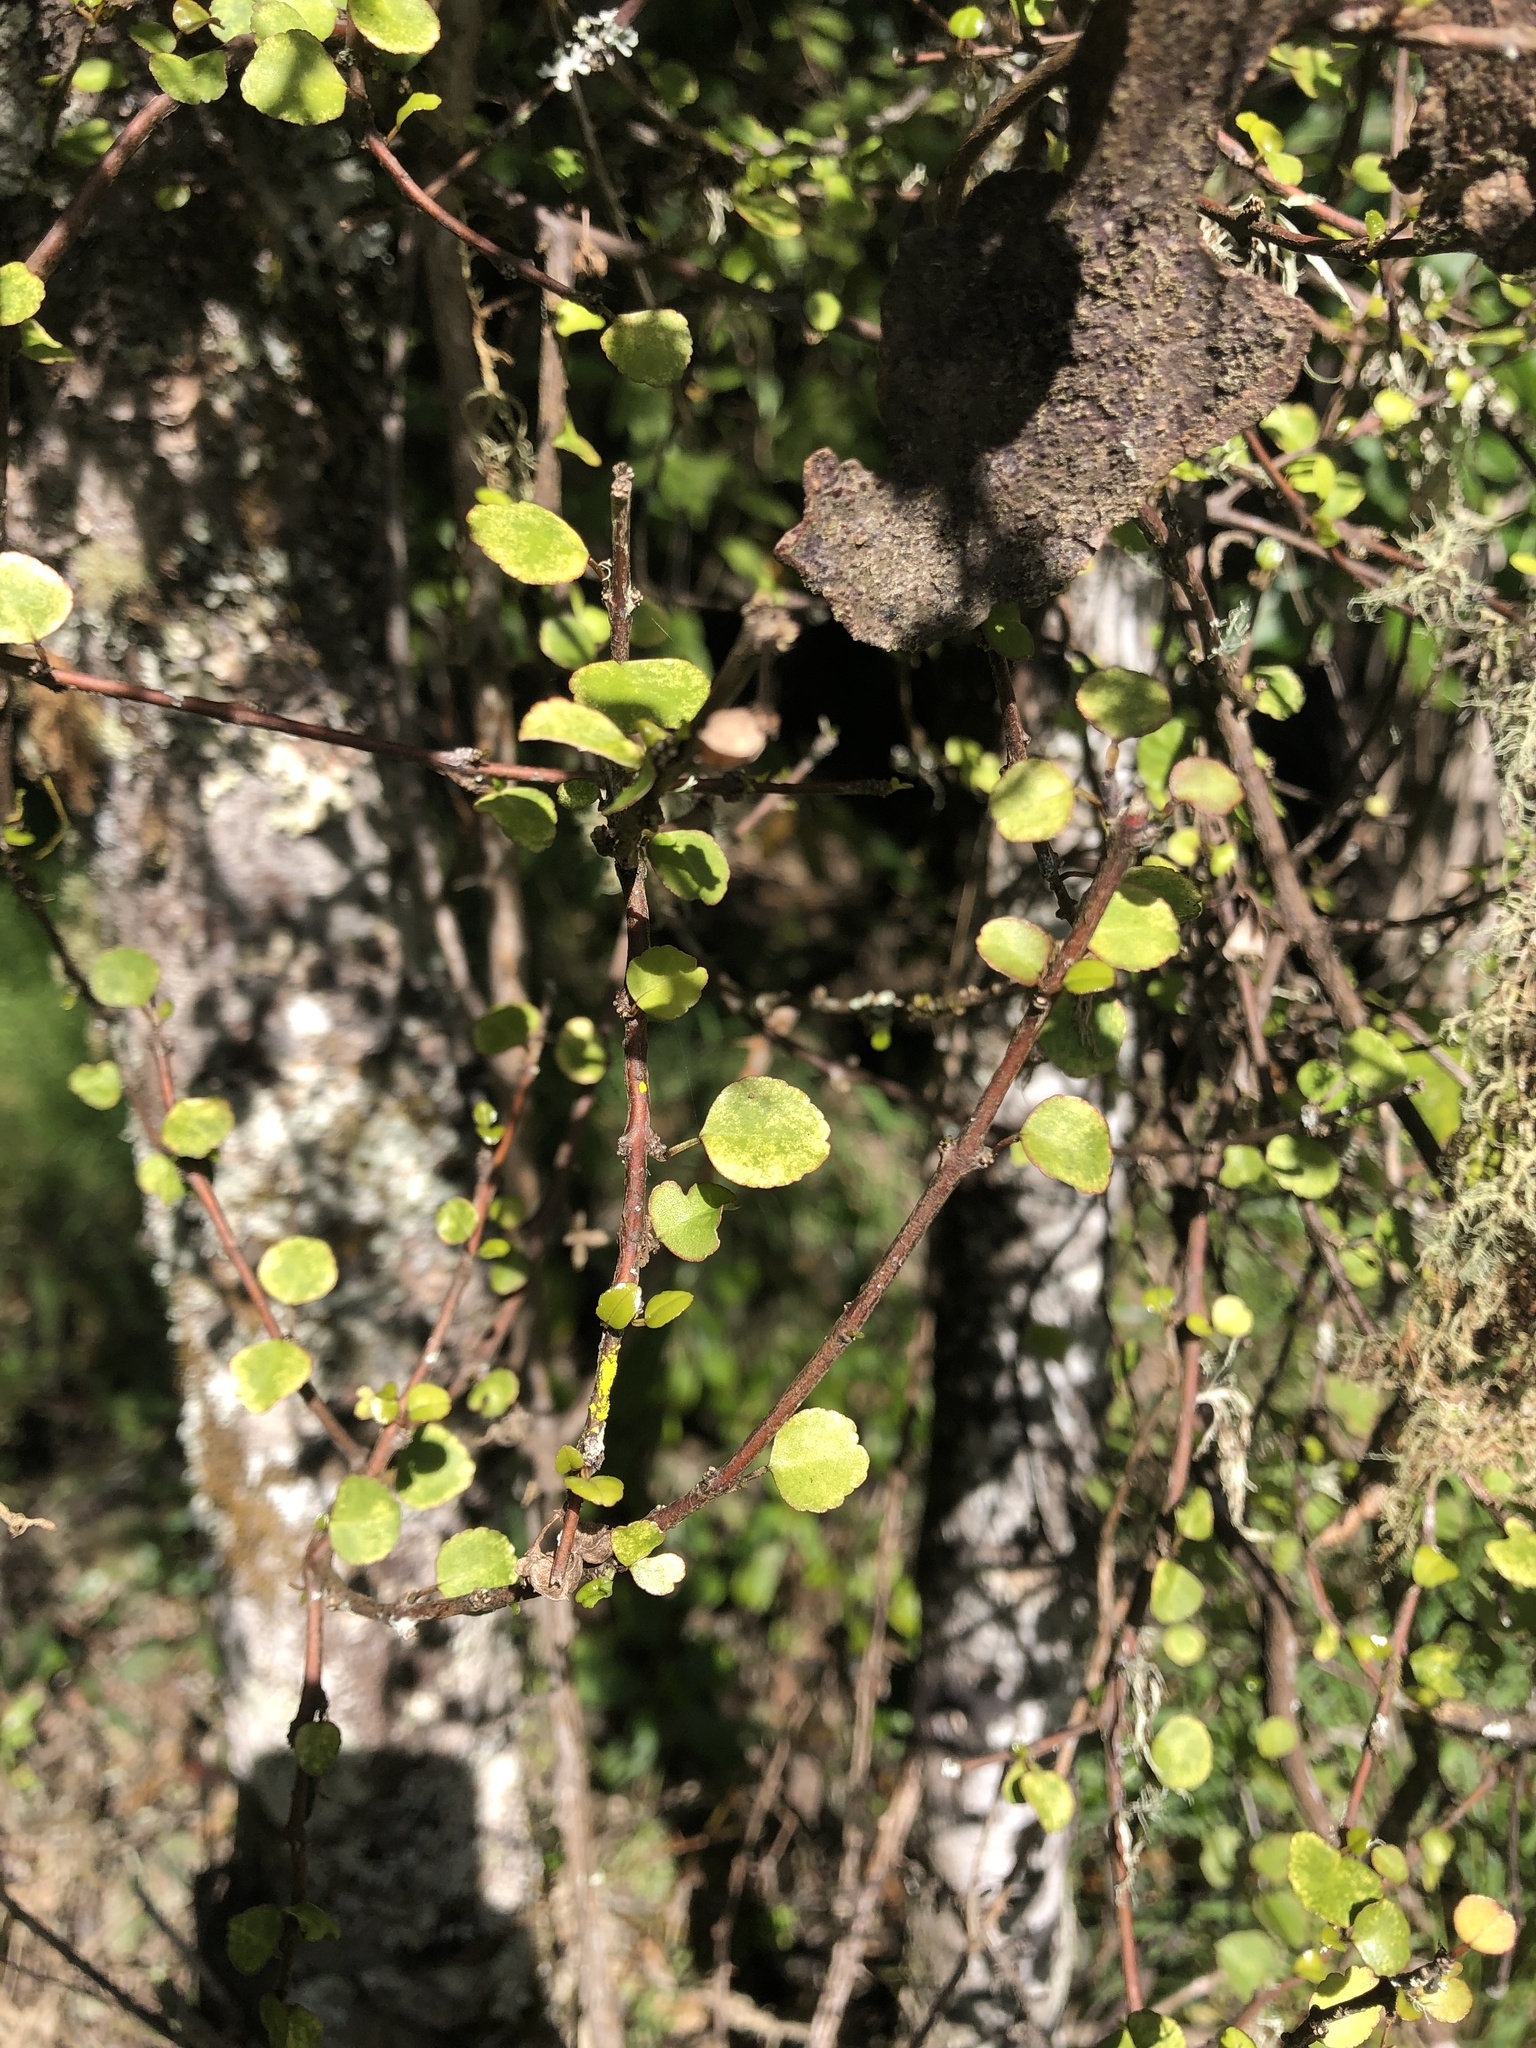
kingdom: Plantae
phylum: Tracheophyta
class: Magnoliopsida
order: Sapindales
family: Rutaceae
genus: Melicope
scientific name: Melicope simplex
